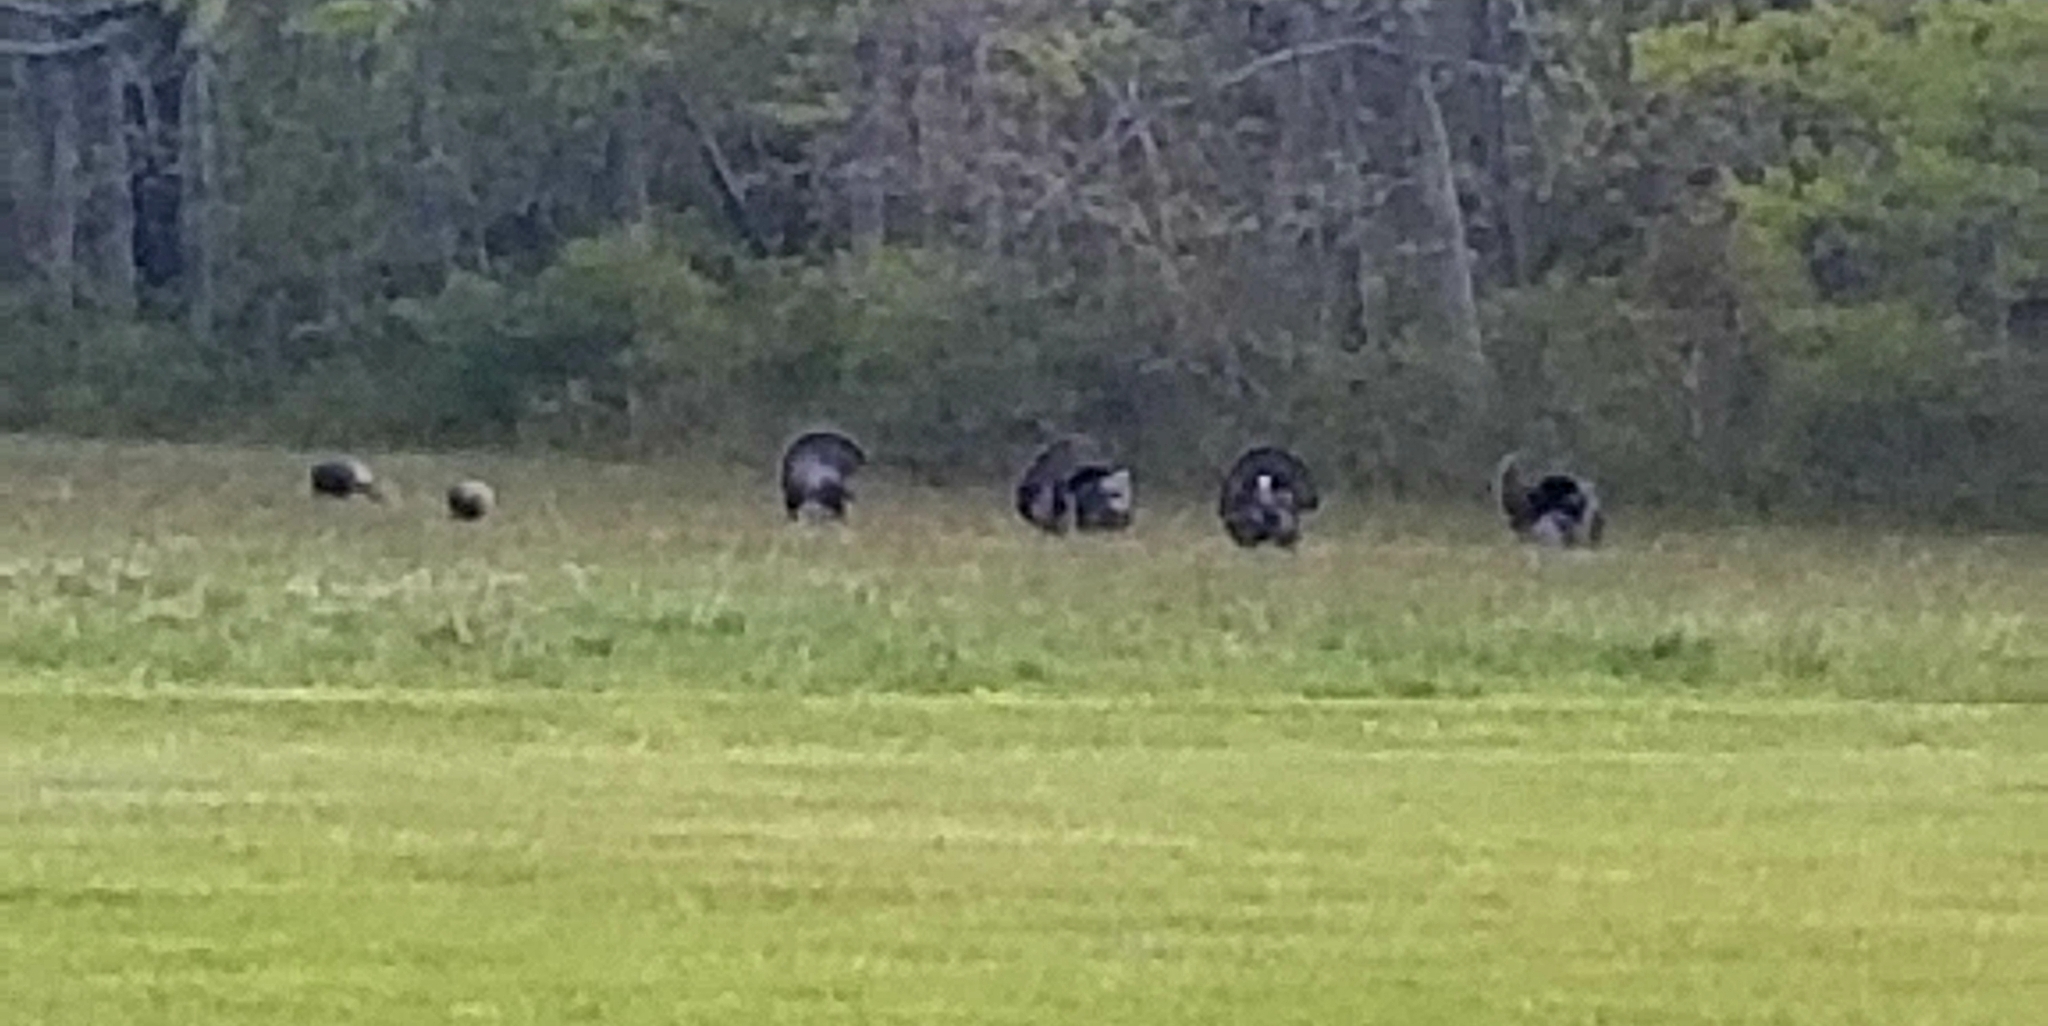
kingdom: Animalia
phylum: Chordata
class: Aves
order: Galliformes
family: Phasianidae
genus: Meleagris
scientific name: Meleagris gallopavo
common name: Wild turkey
